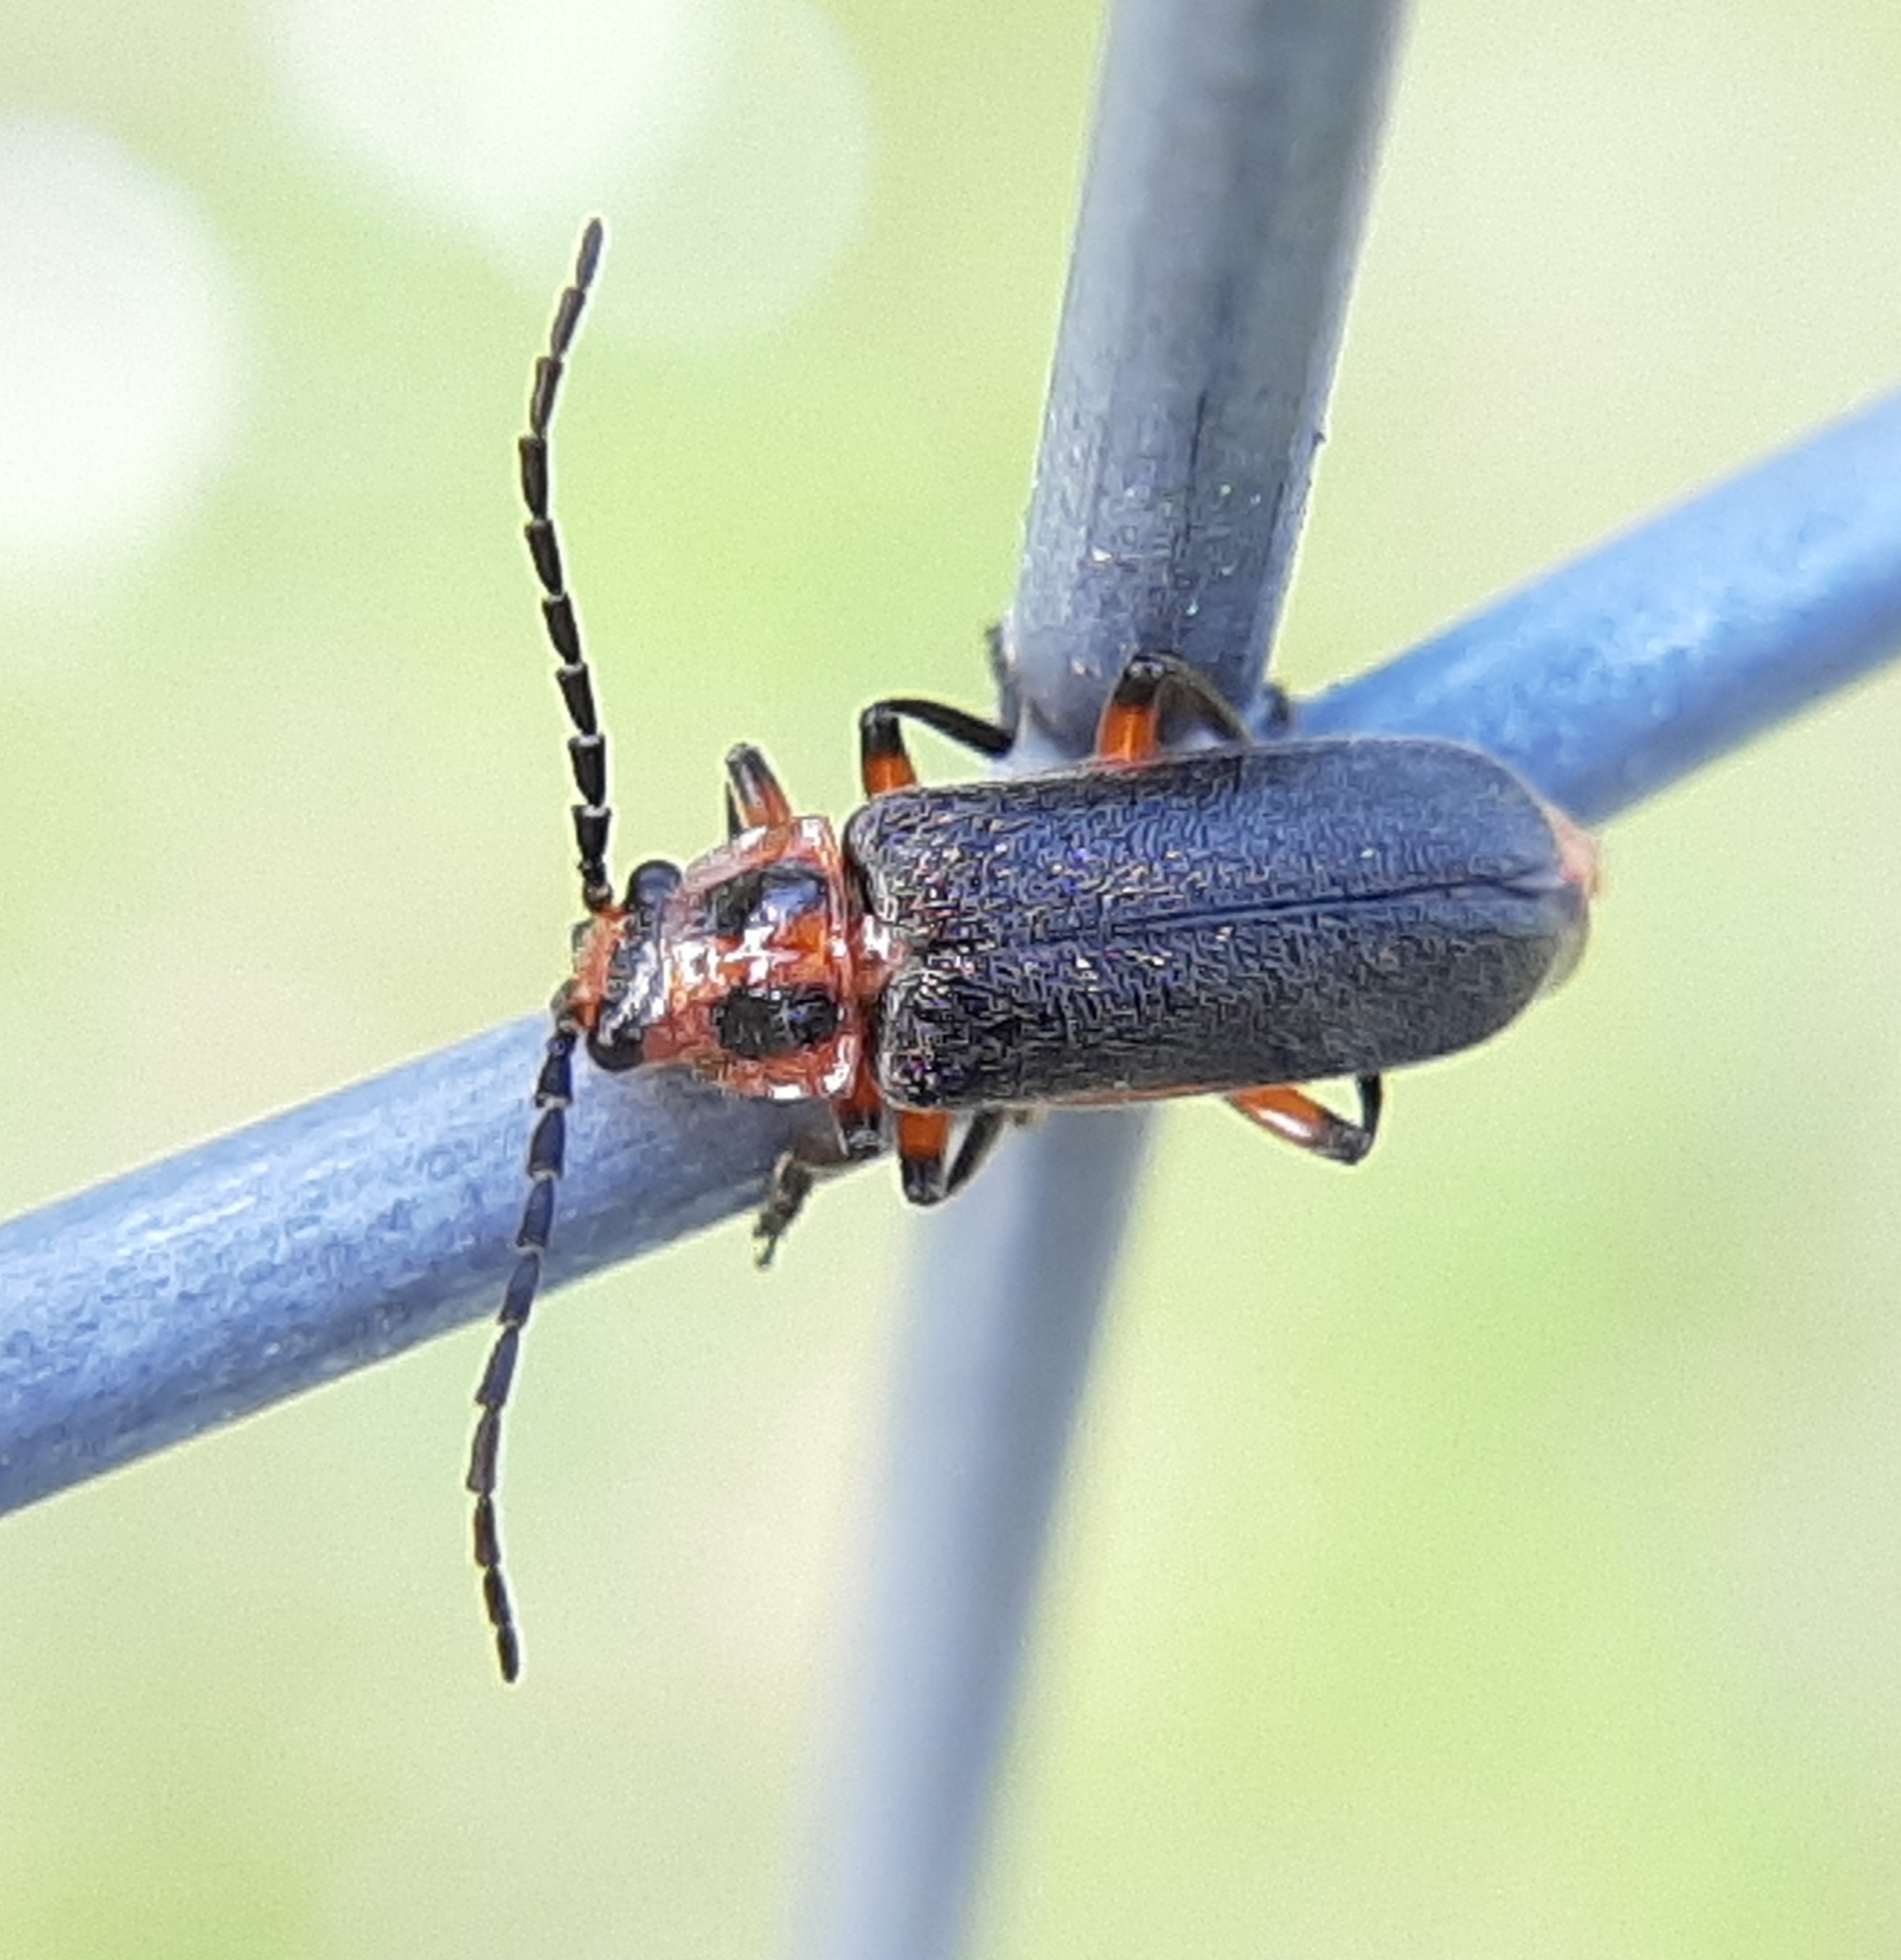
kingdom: Animalia
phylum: Arthropoda
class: Insecta
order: Coleoptera
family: Cantharidae
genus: Atalantycha
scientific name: Atalantycha bilineata
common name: Two-lined leatherwing
